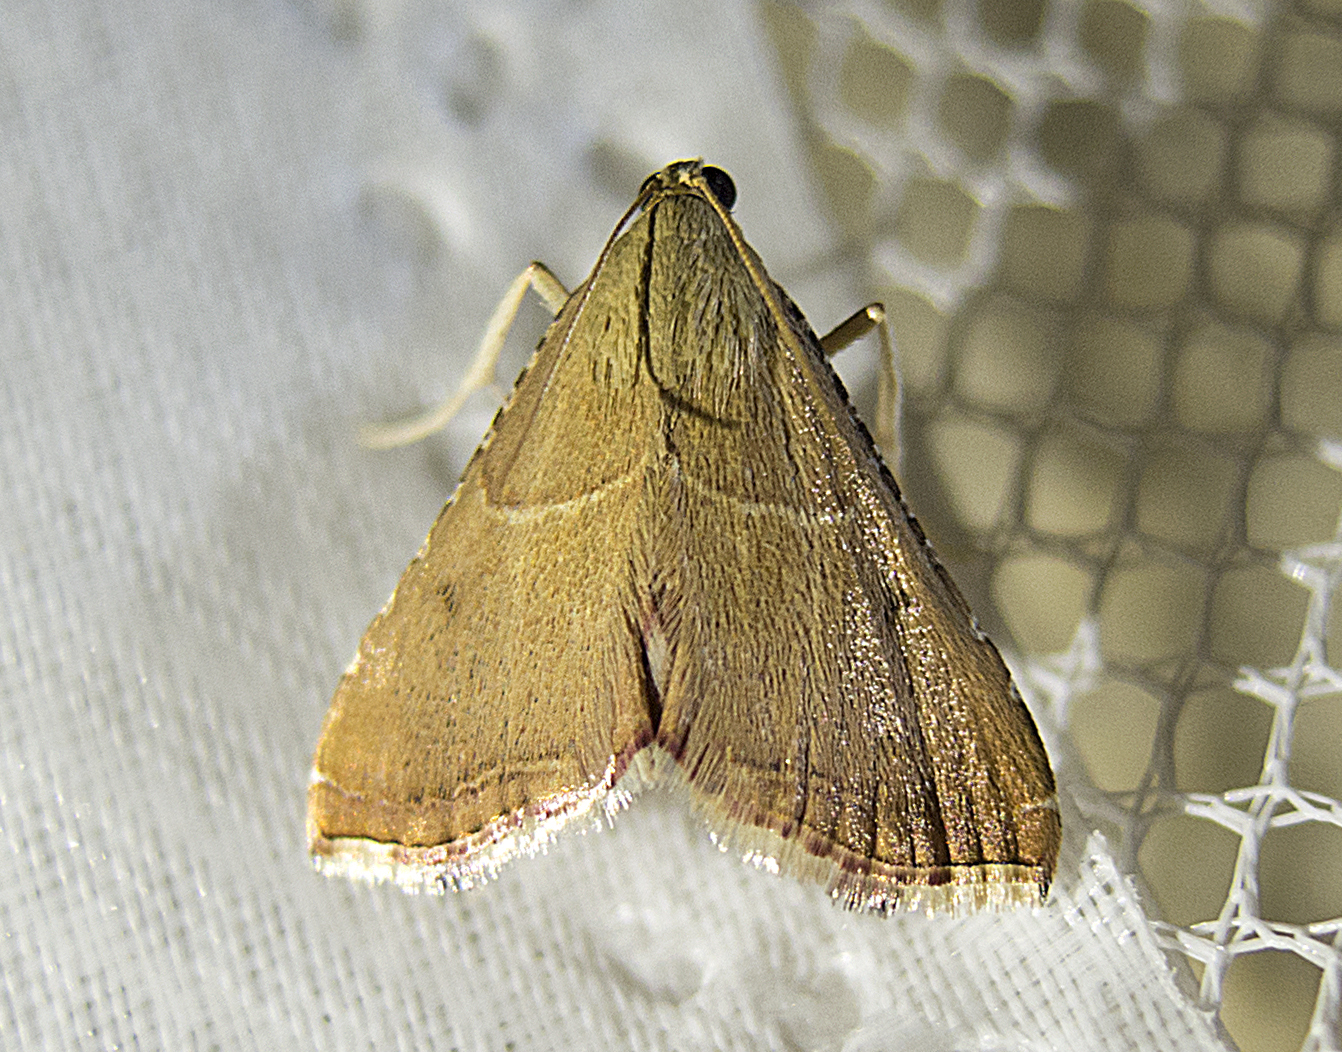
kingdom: Animalia
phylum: Arthropoda
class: Insecta
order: Lepidoptera
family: Pyralidae
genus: Endotricha
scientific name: Endotricha flammealis
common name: Rosy tabby
